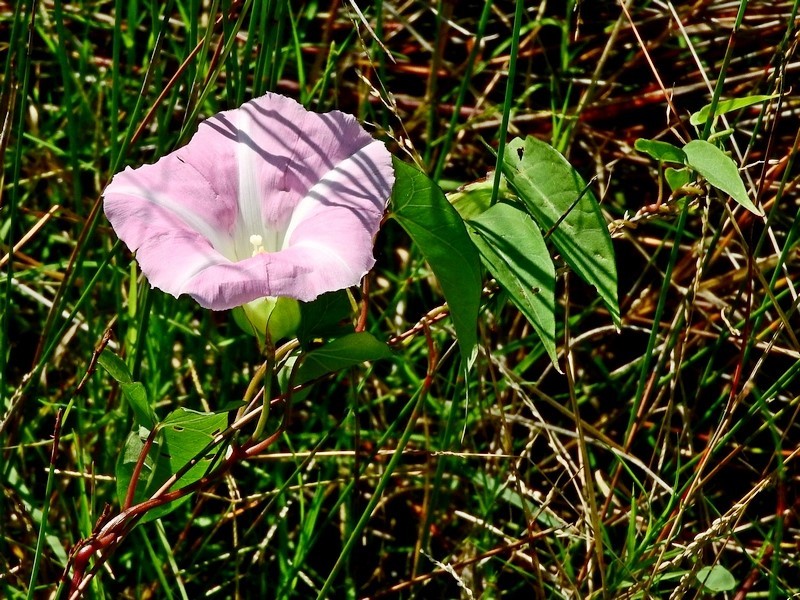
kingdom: Plantae
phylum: Tracheophyta
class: Magnoliopsida
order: Solanales
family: Convolvulaceae
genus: Calystegia
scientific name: Calystegia sepium
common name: Hedge bindweed
